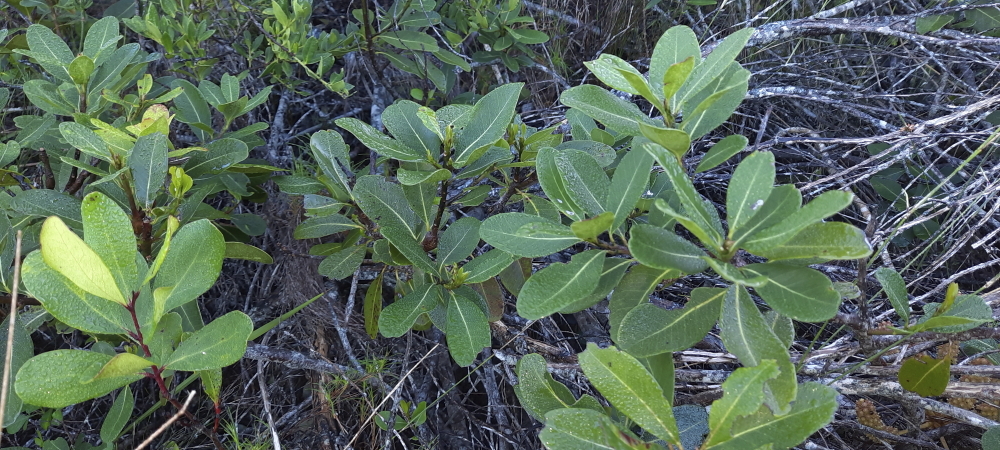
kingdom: Plantae
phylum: Tracheophyta
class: Magnoliopsida
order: Ericales
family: Sapotaceae
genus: Sideroxylon
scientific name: Sideroxylon inerme
